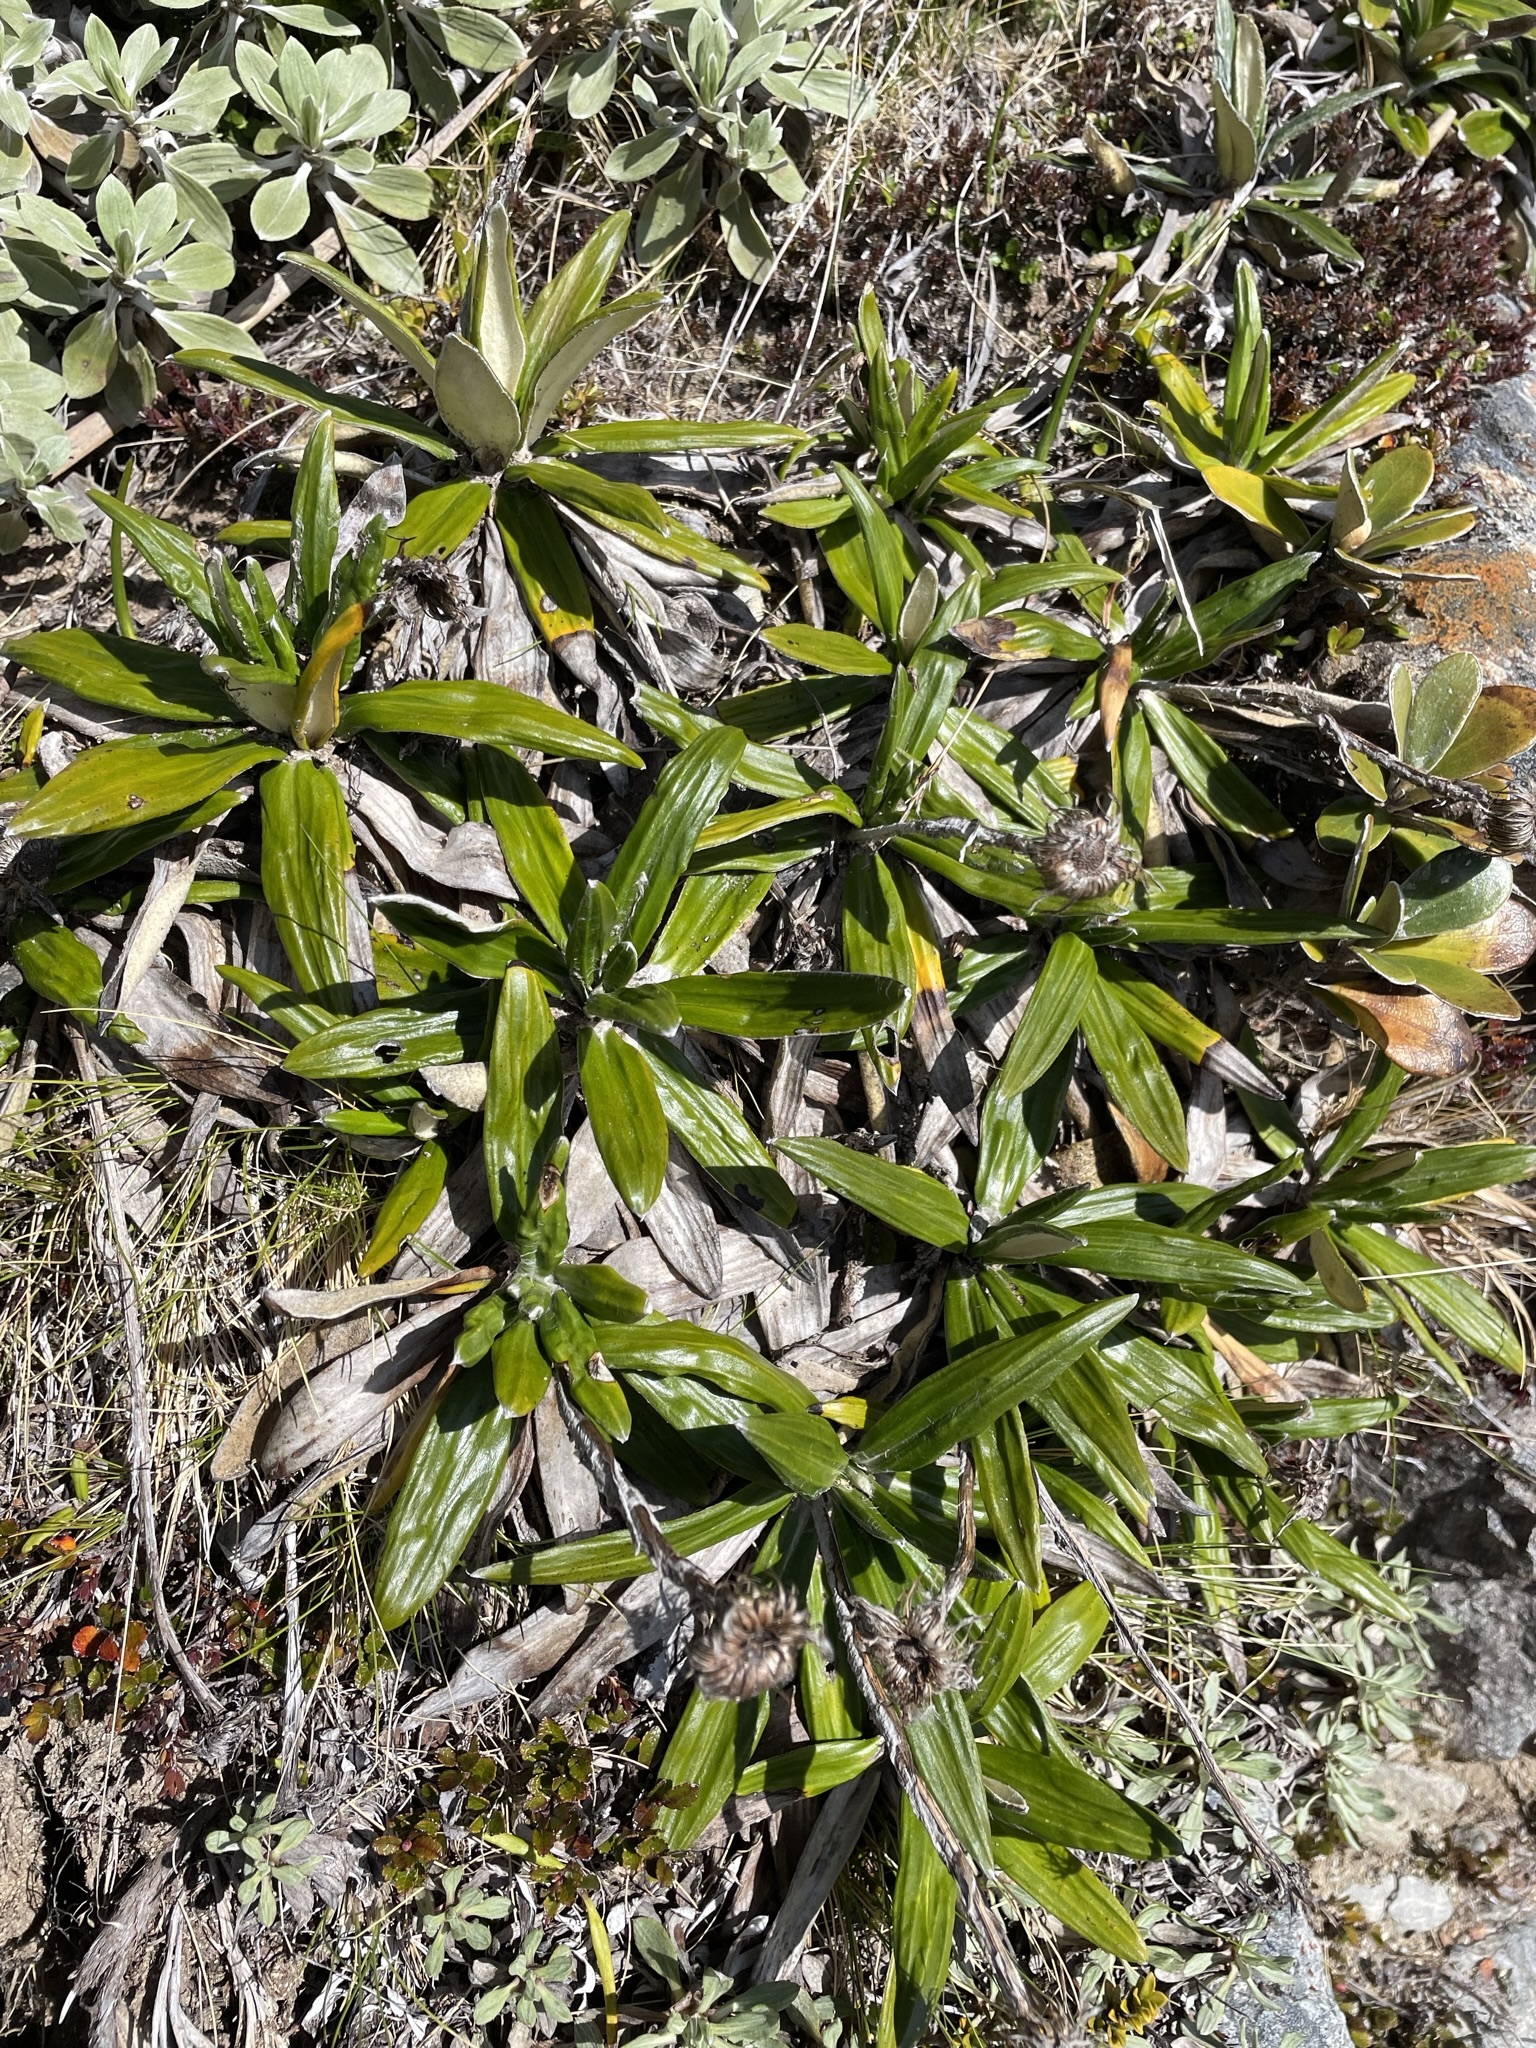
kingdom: Plantae
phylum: Tracheophyta
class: Magnoliopsida
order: Asterales
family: Asteraceae
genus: Celmisia
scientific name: Celmisia spectabilis
